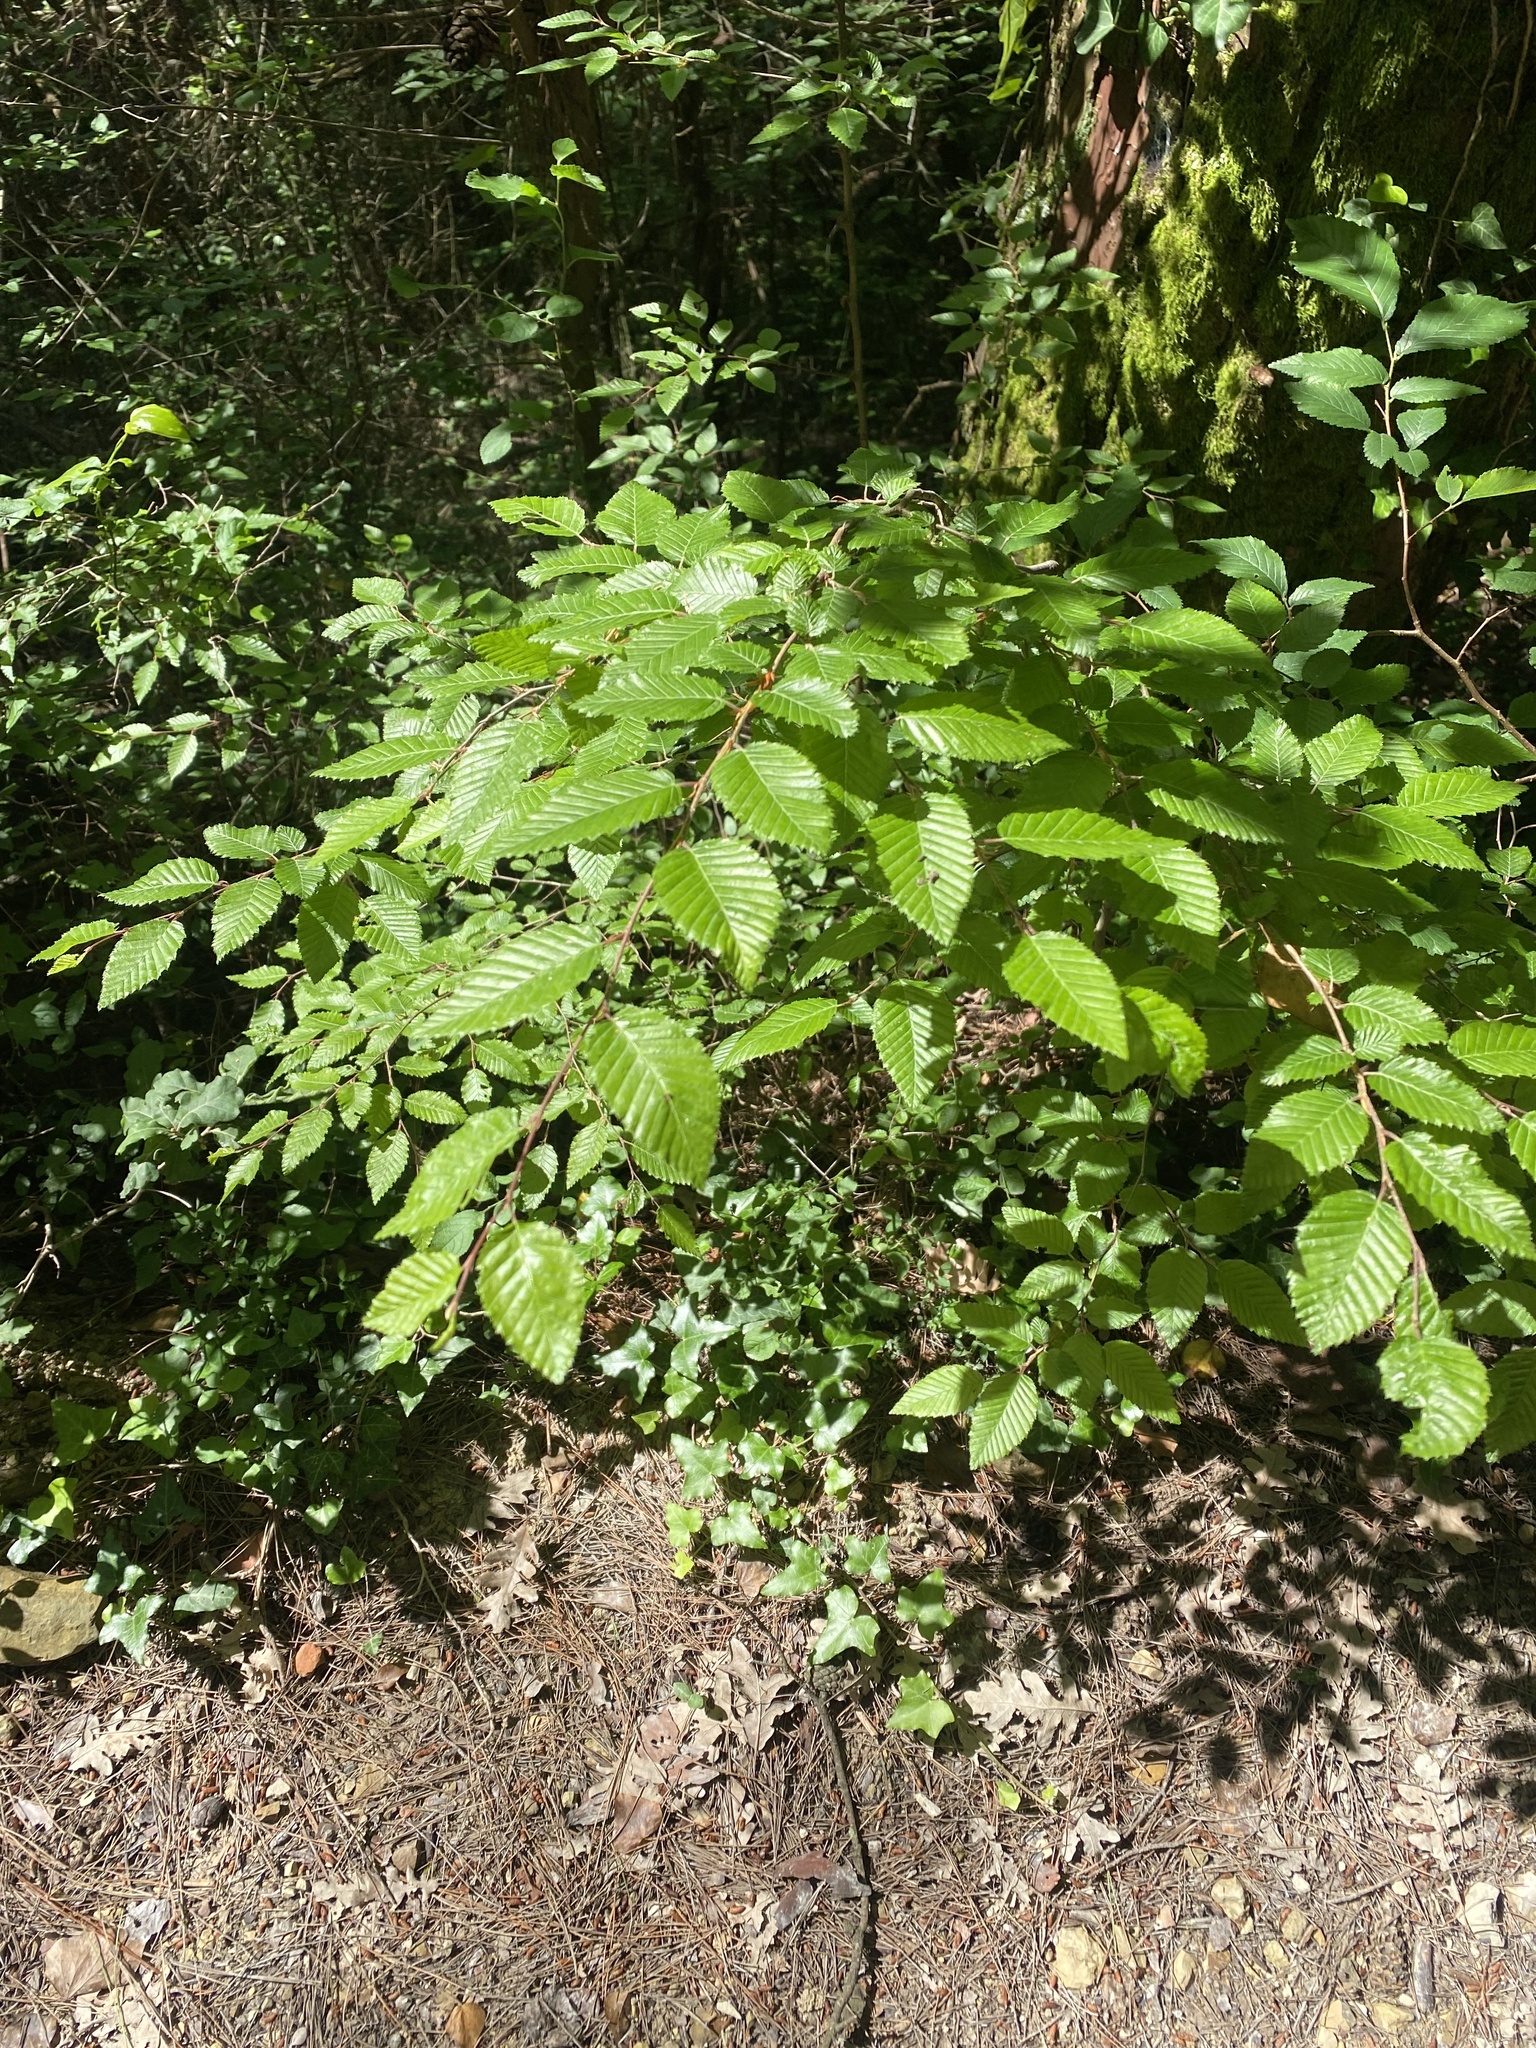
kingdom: Plantae
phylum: Tracheophyta
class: Magnoliopsida
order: Fagales
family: Betulaceae
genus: Carpinus
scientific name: Carpinus orientalis
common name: Eastern hornbeam
